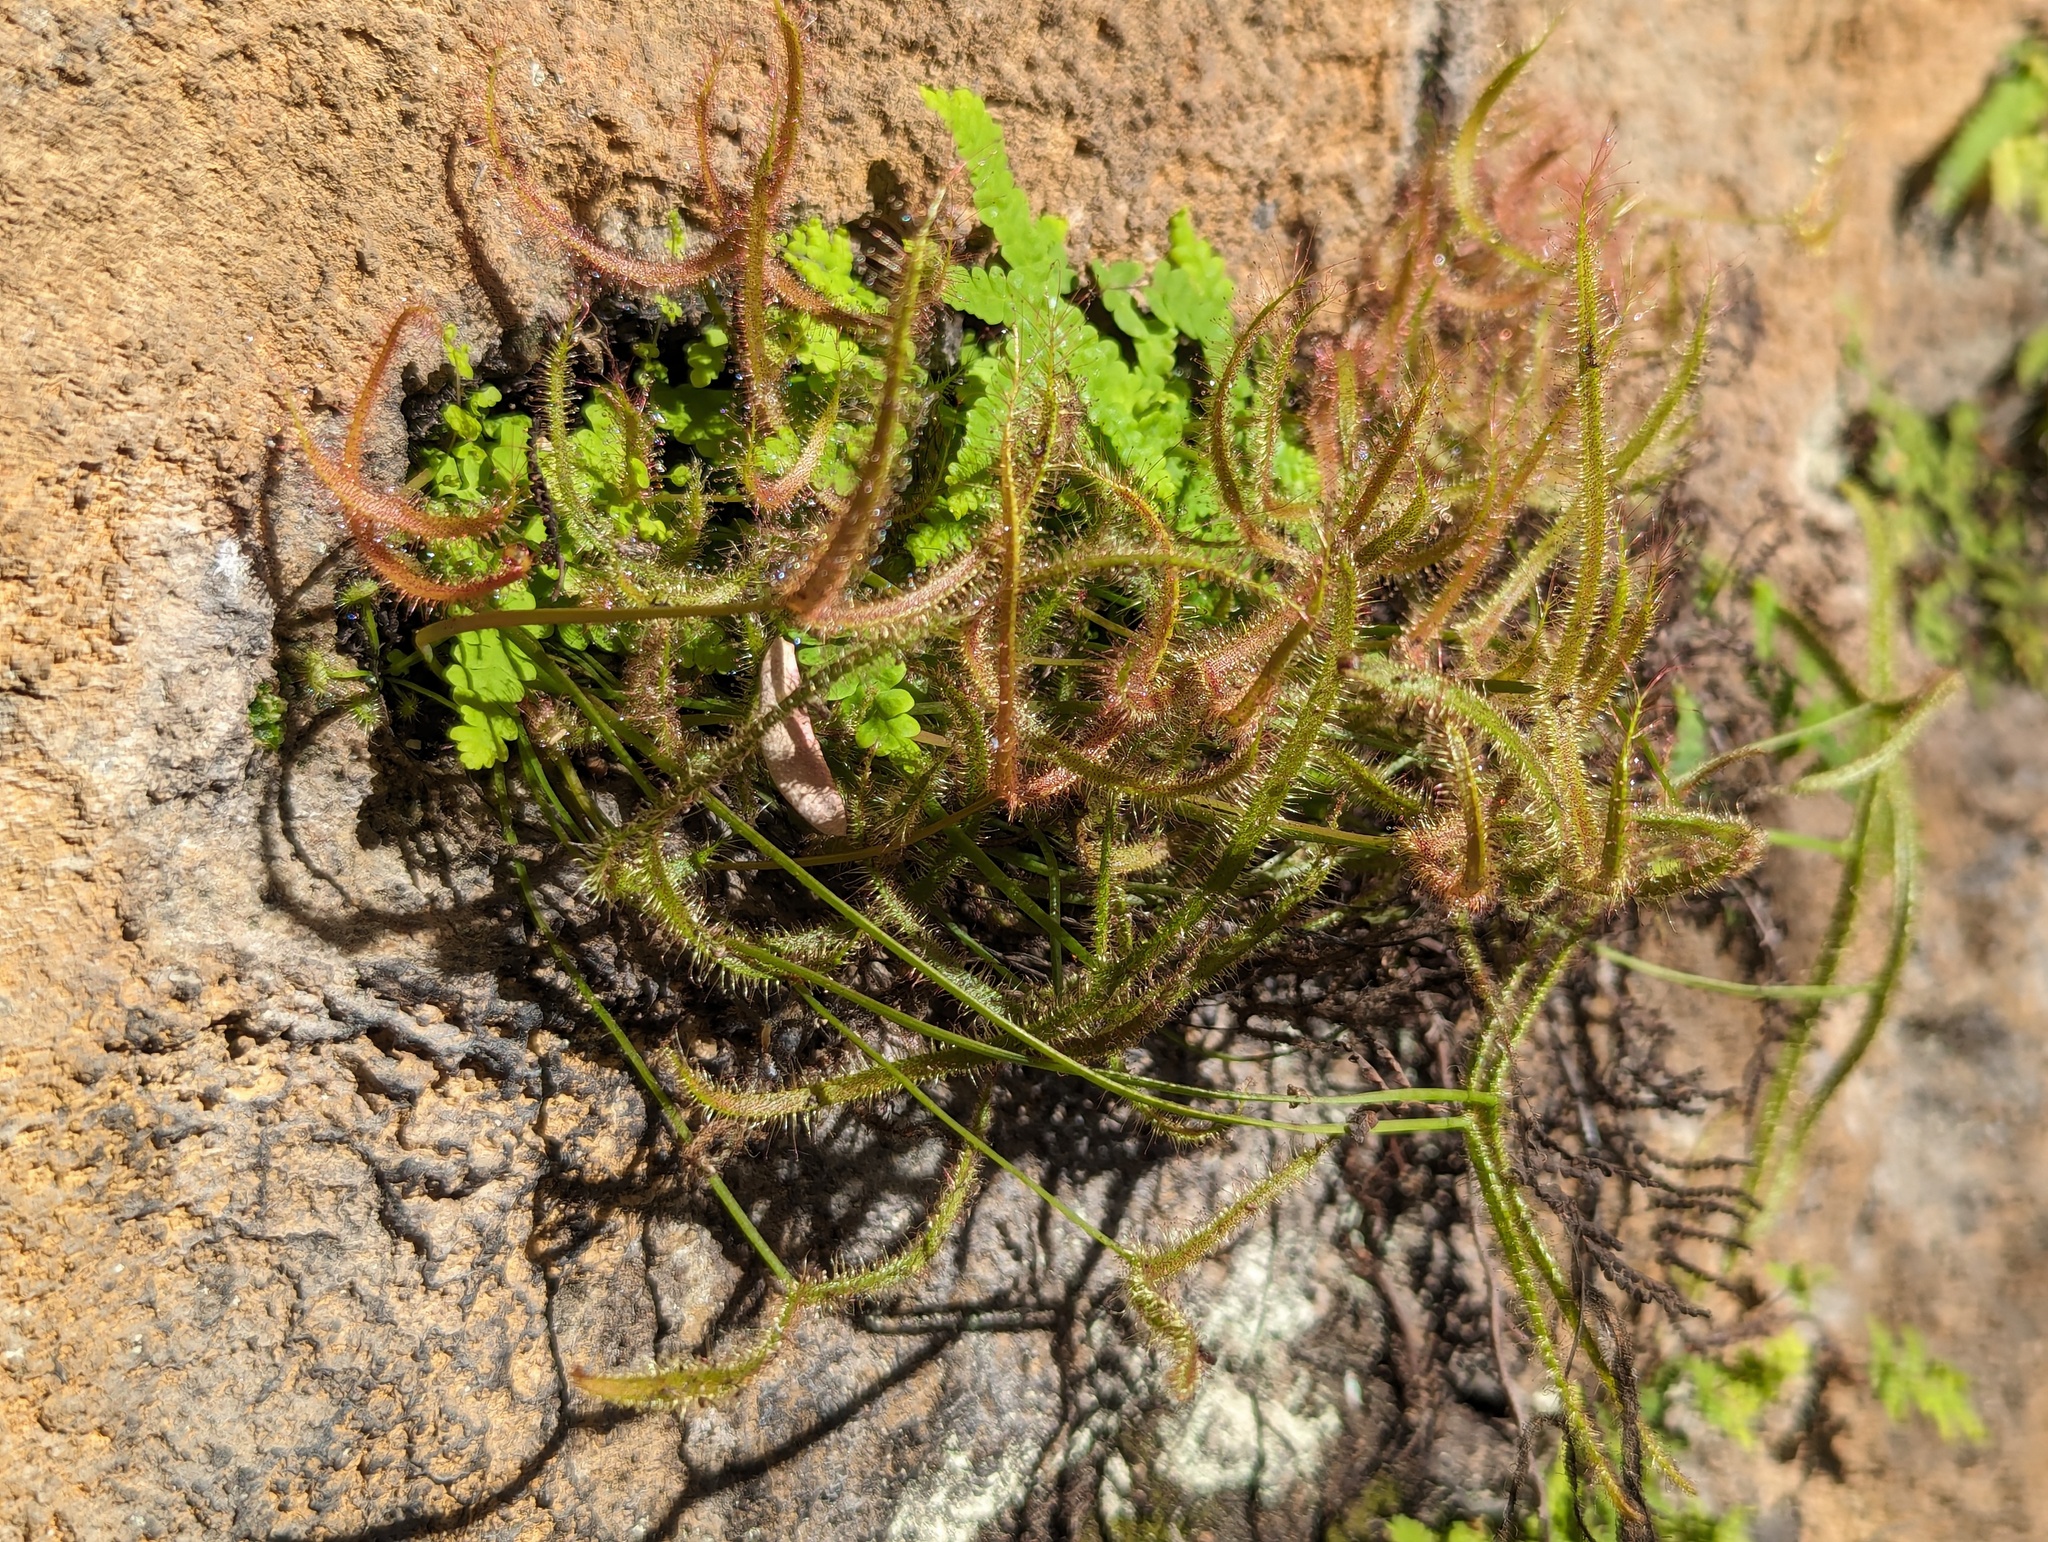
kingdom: Plantae
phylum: Tracheophyta
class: Magnoliopsida
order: Caryophyllales
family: Droseraceae
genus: Drosera
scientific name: Drosera binata
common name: Forked sundew
